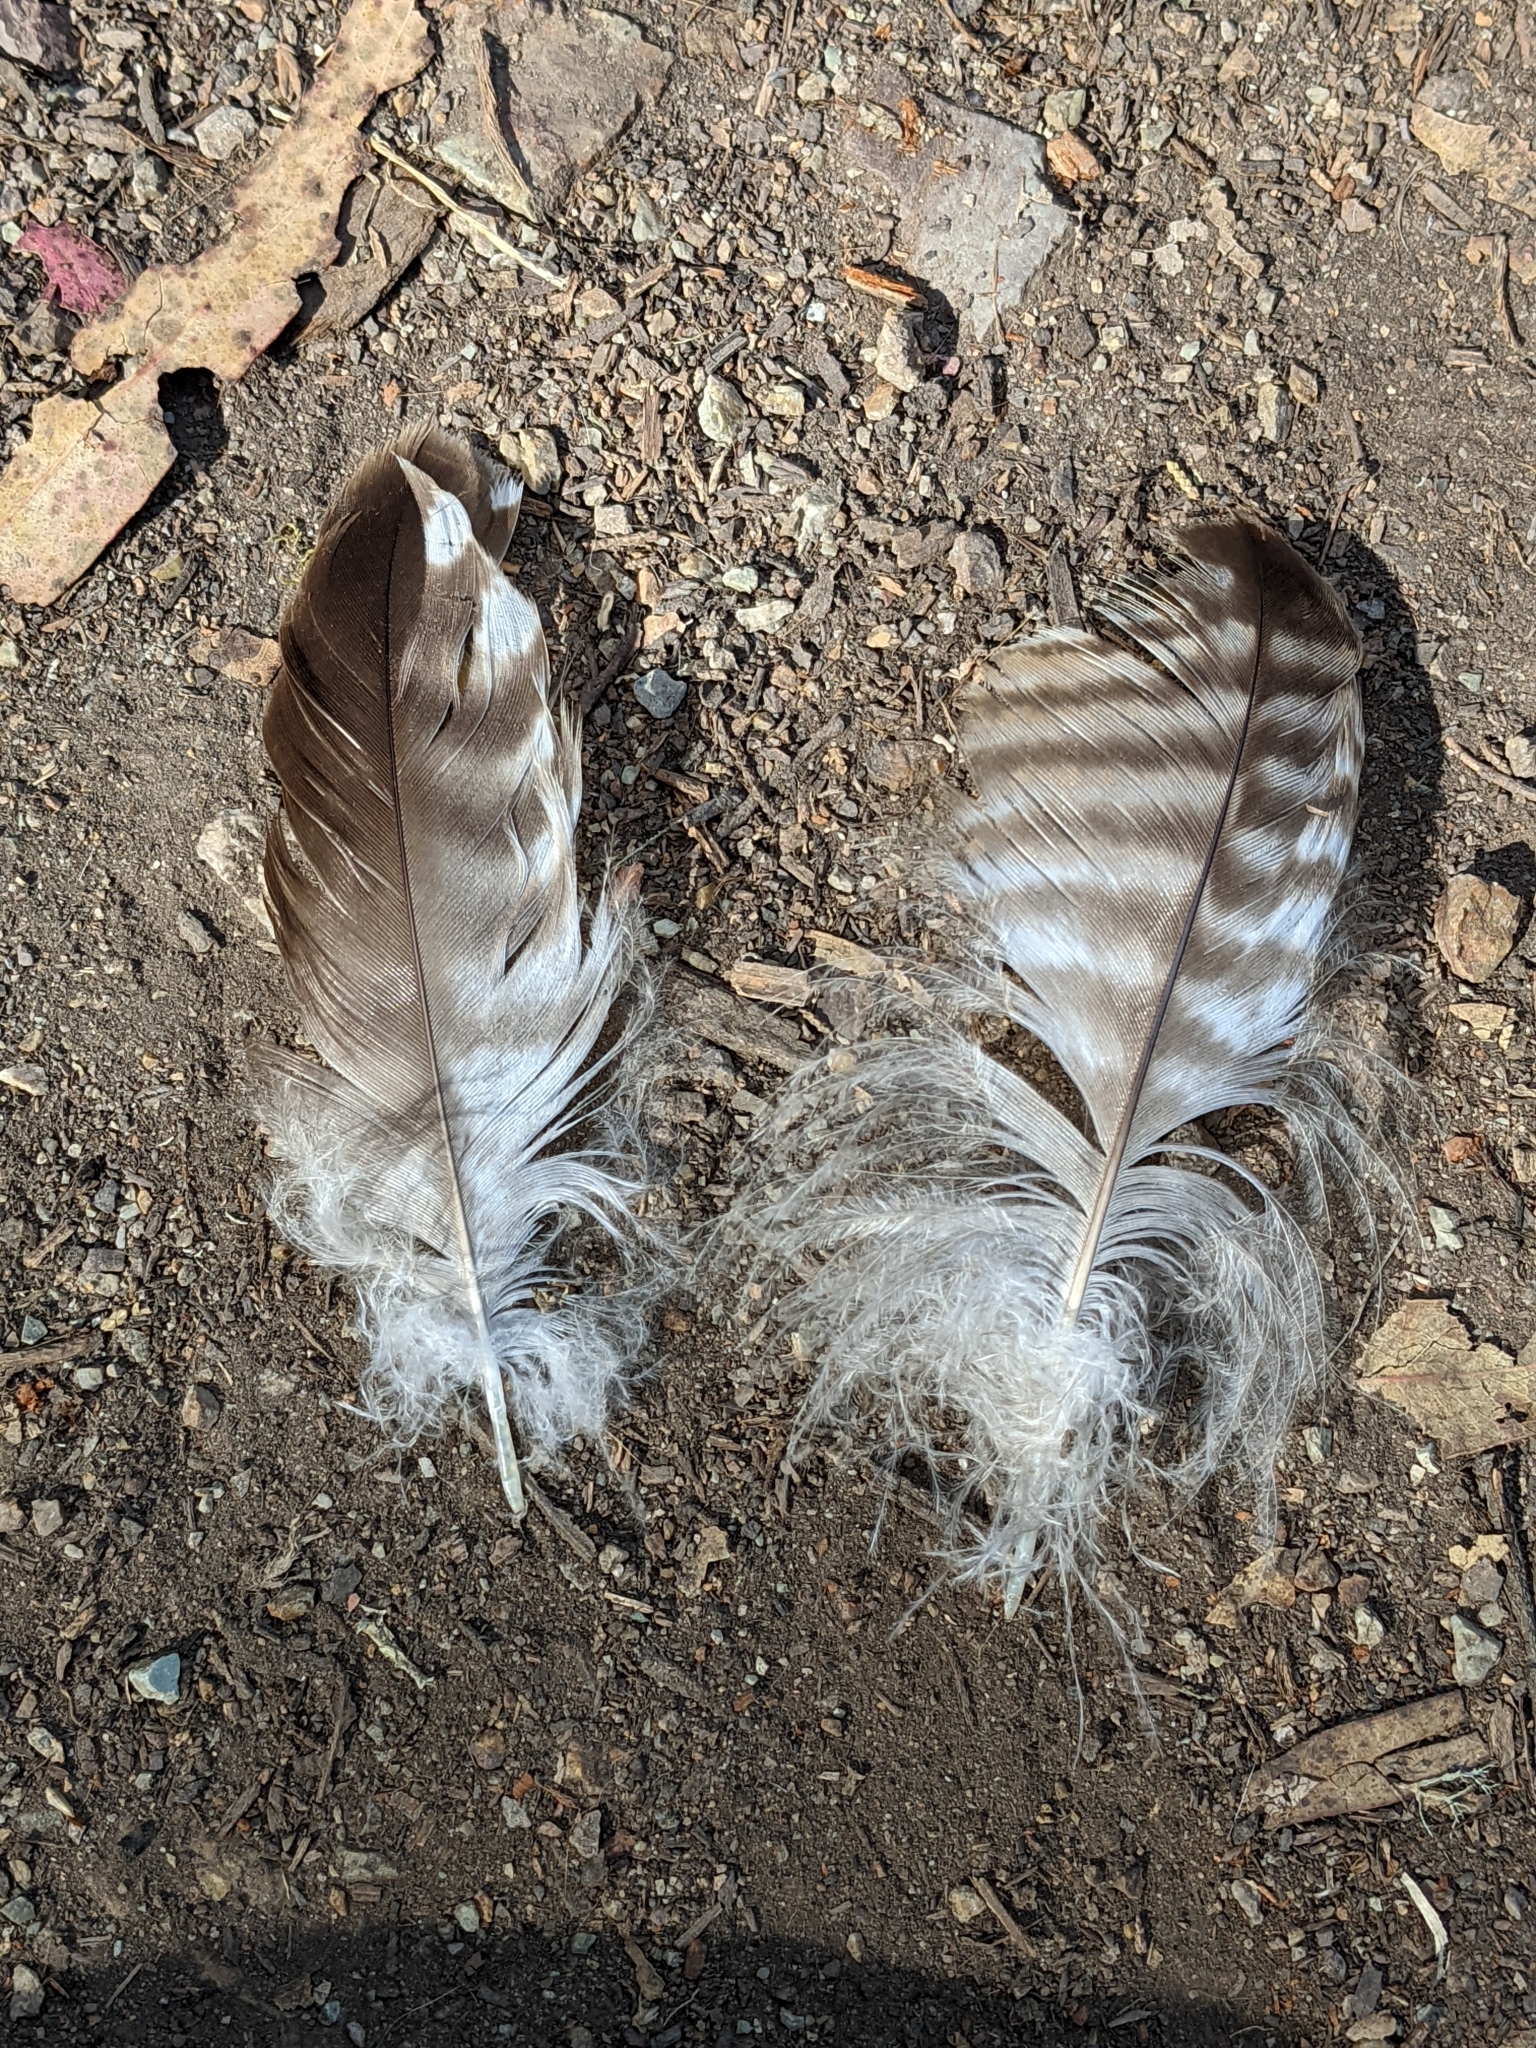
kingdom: Animalia
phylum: Chordata
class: Aves
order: Accipitriformes
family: Accipitridae
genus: Buteo
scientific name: Buteo jamaicensis
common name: Red-tailed hawk
